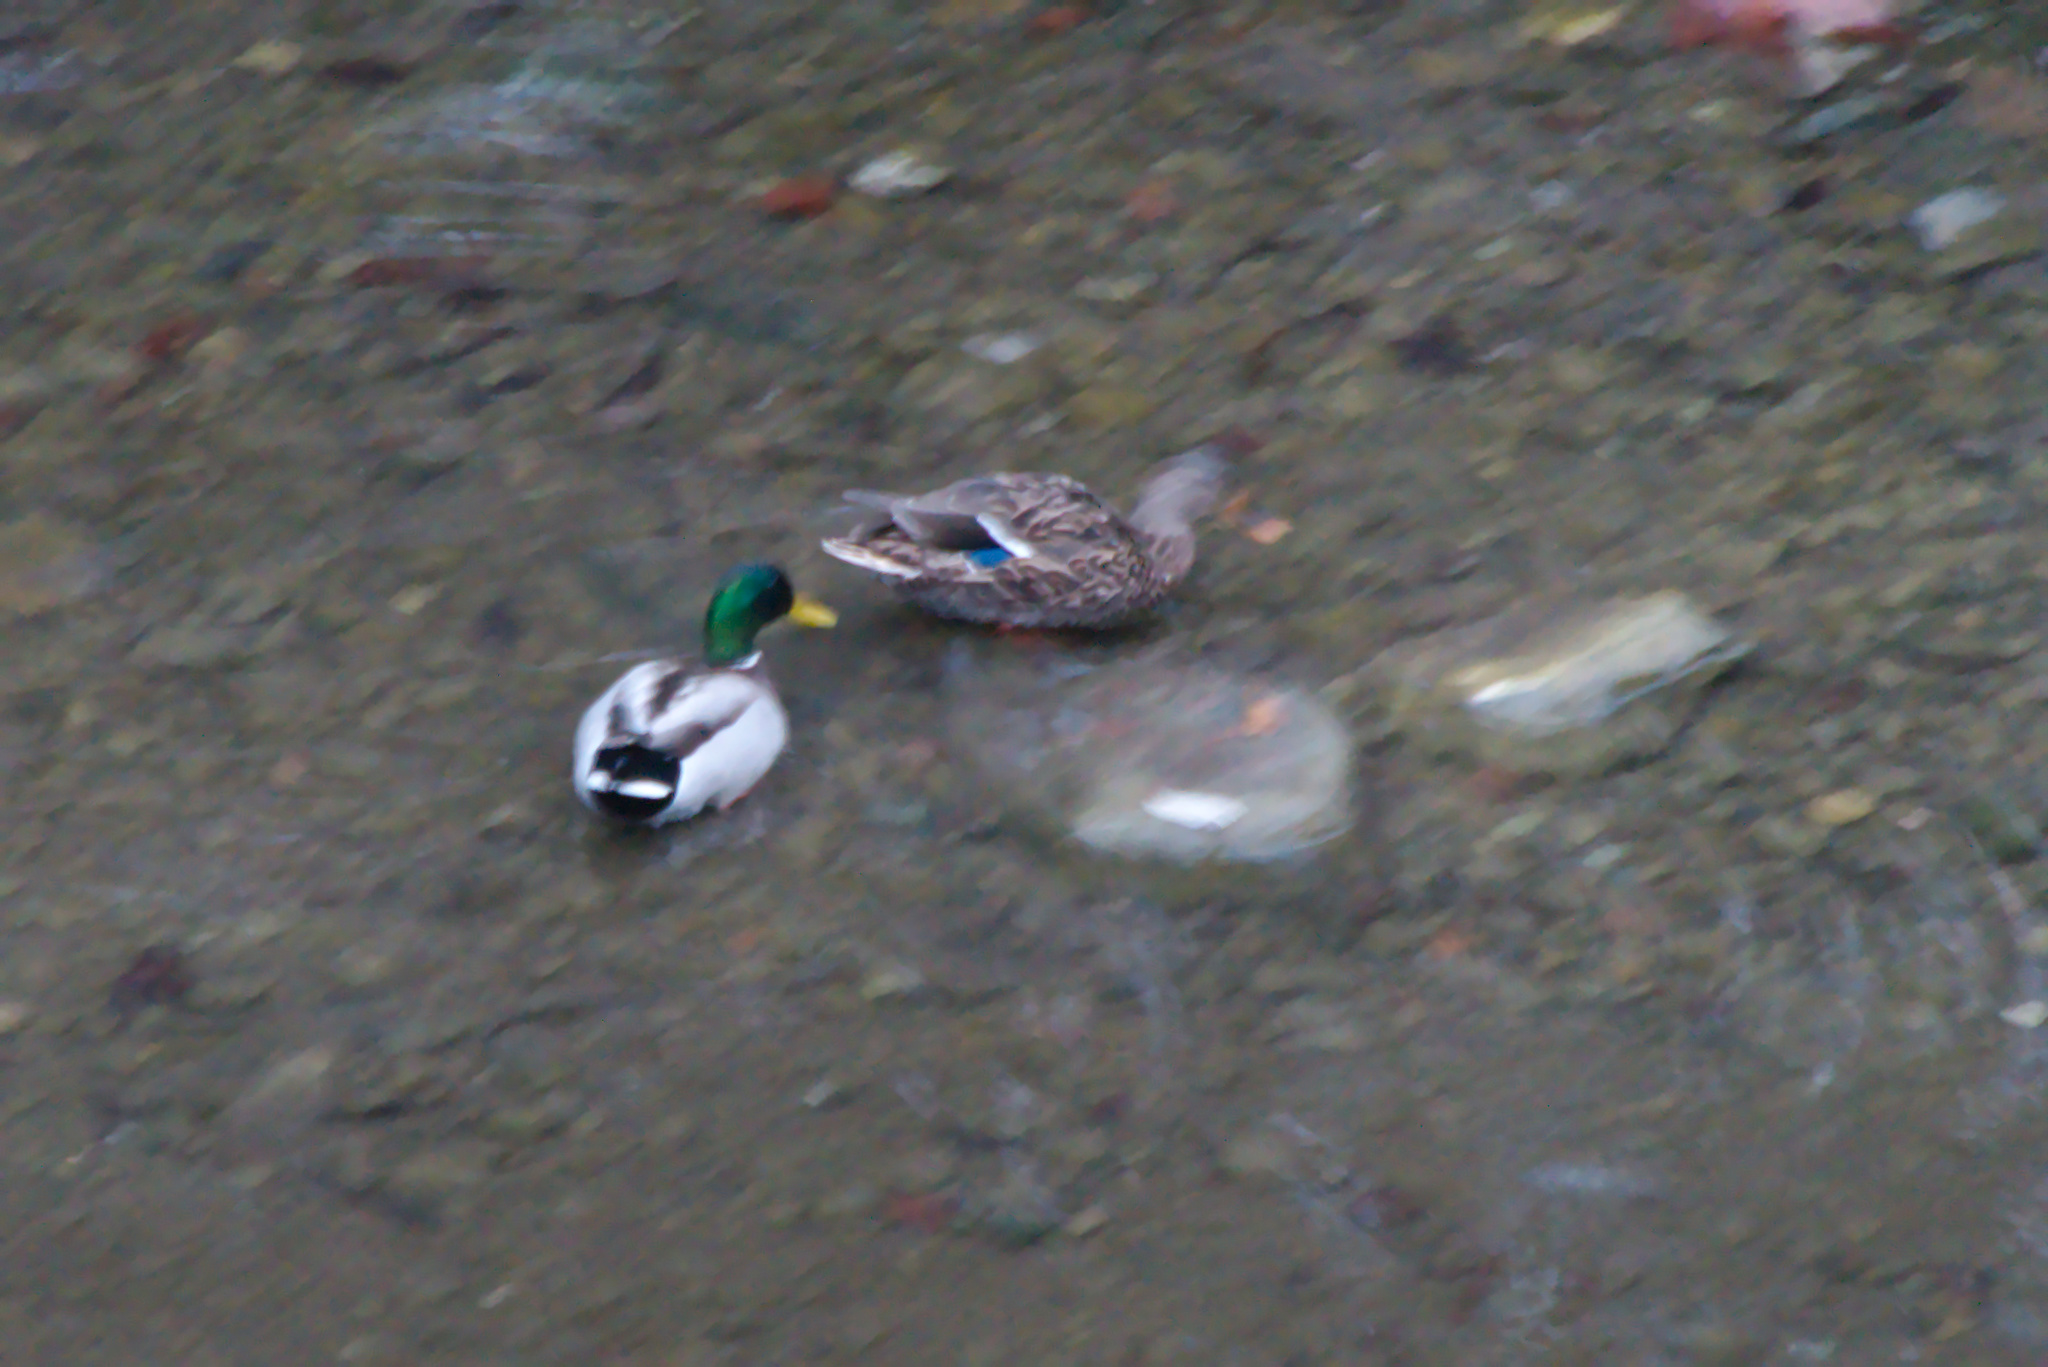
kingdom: Animalia
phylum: Chordata
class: Aves
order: Anseriformes
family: Anatidae
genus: Anas
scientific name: Anas platyrhynchos
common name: Mallard
